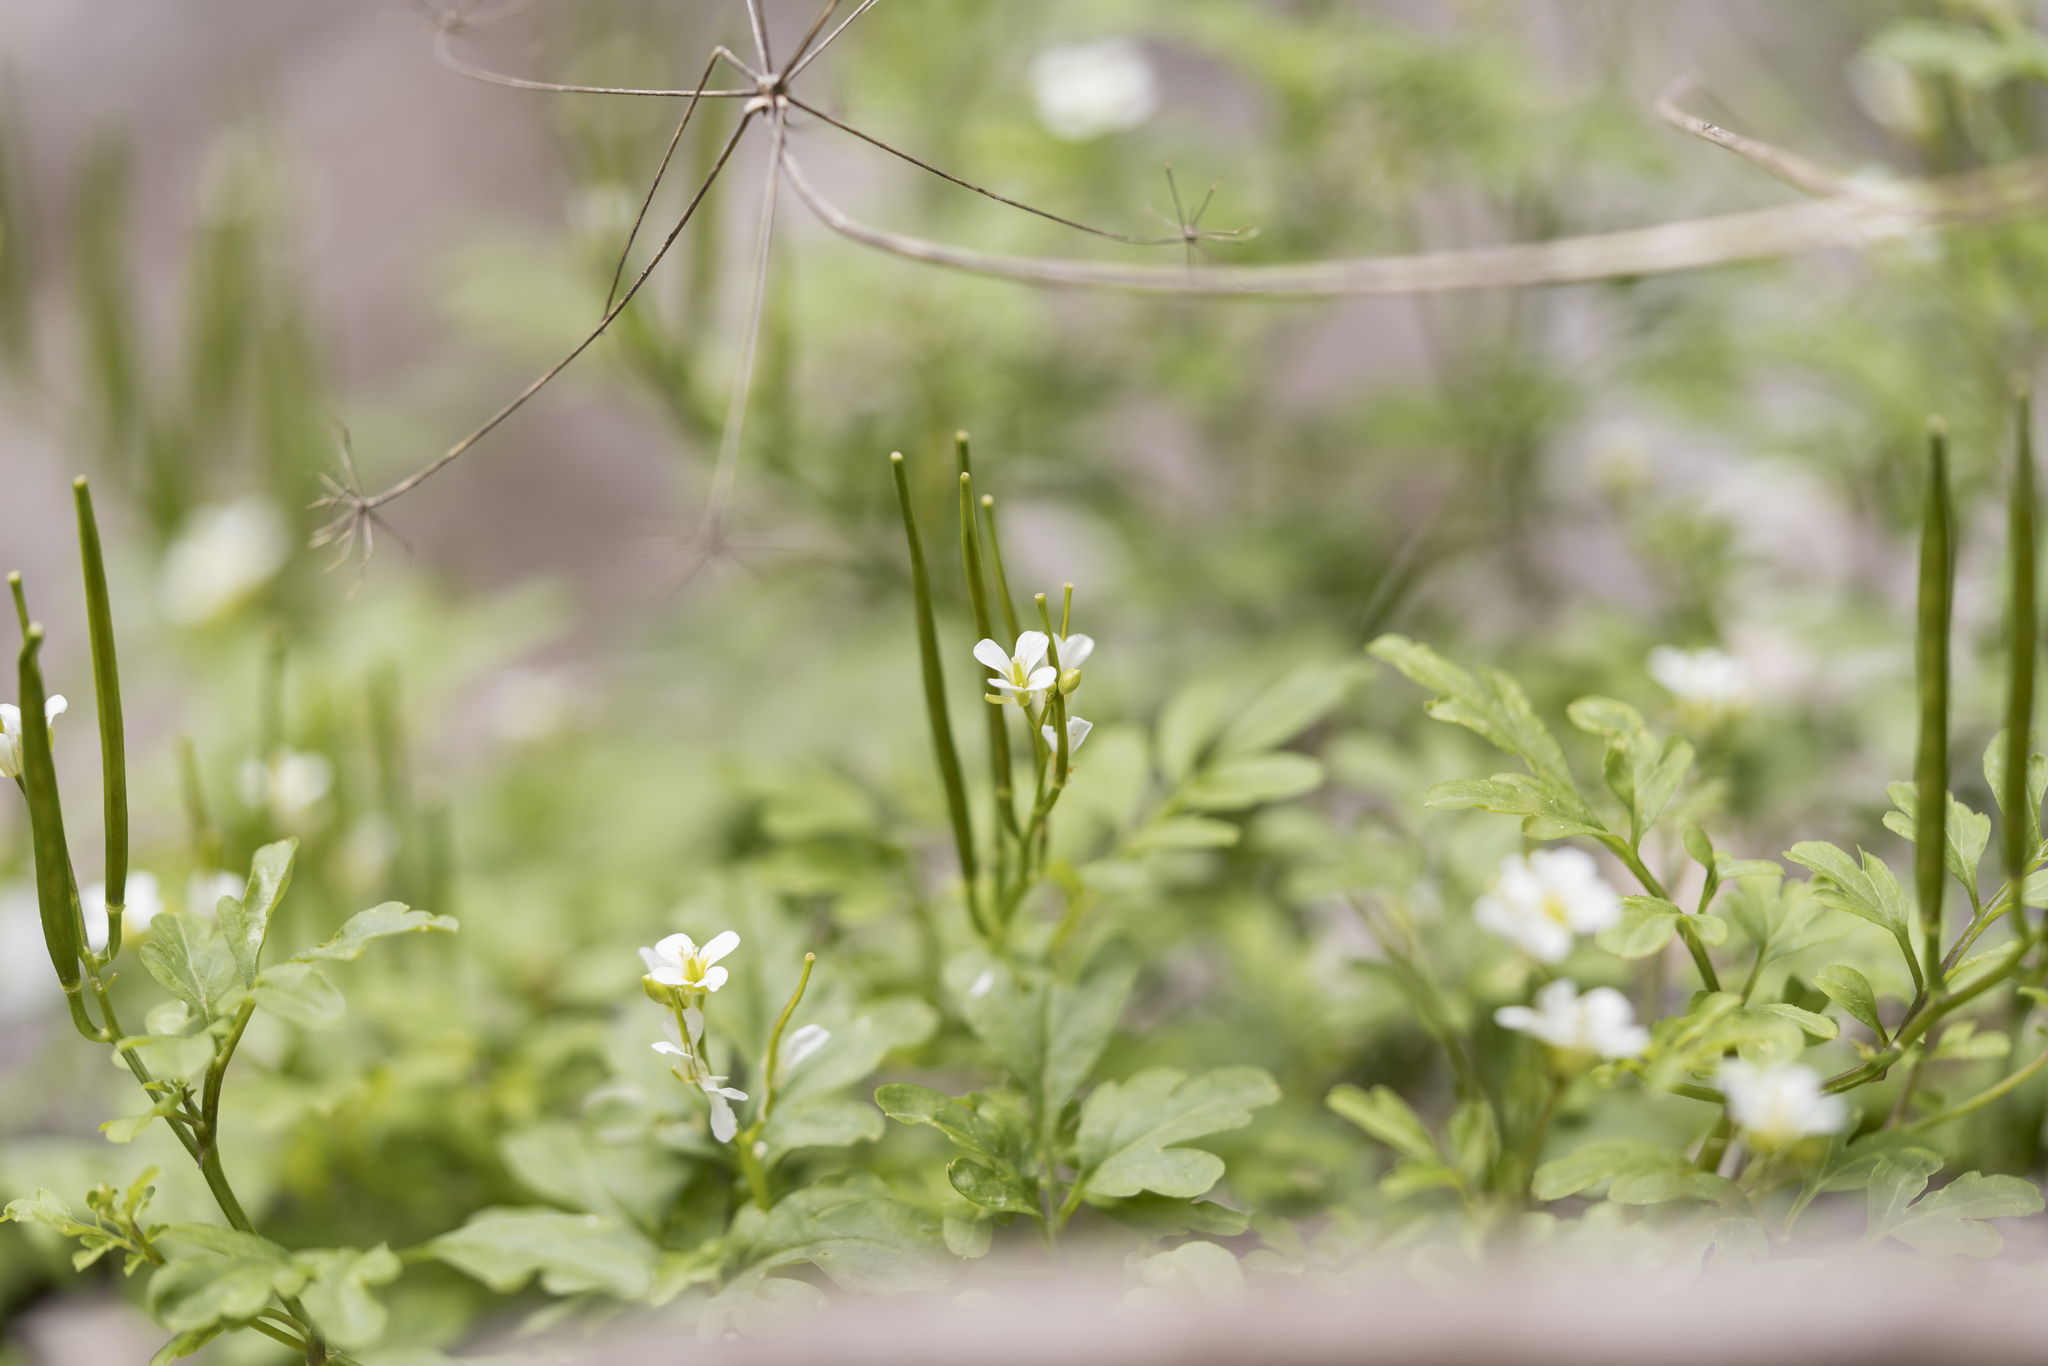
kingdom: Plantae
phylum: Tracheophyta
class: Magnoliopsida
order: Brassicales
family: Brassicaceae
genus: Cardamine
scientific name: Cardamine graeca
